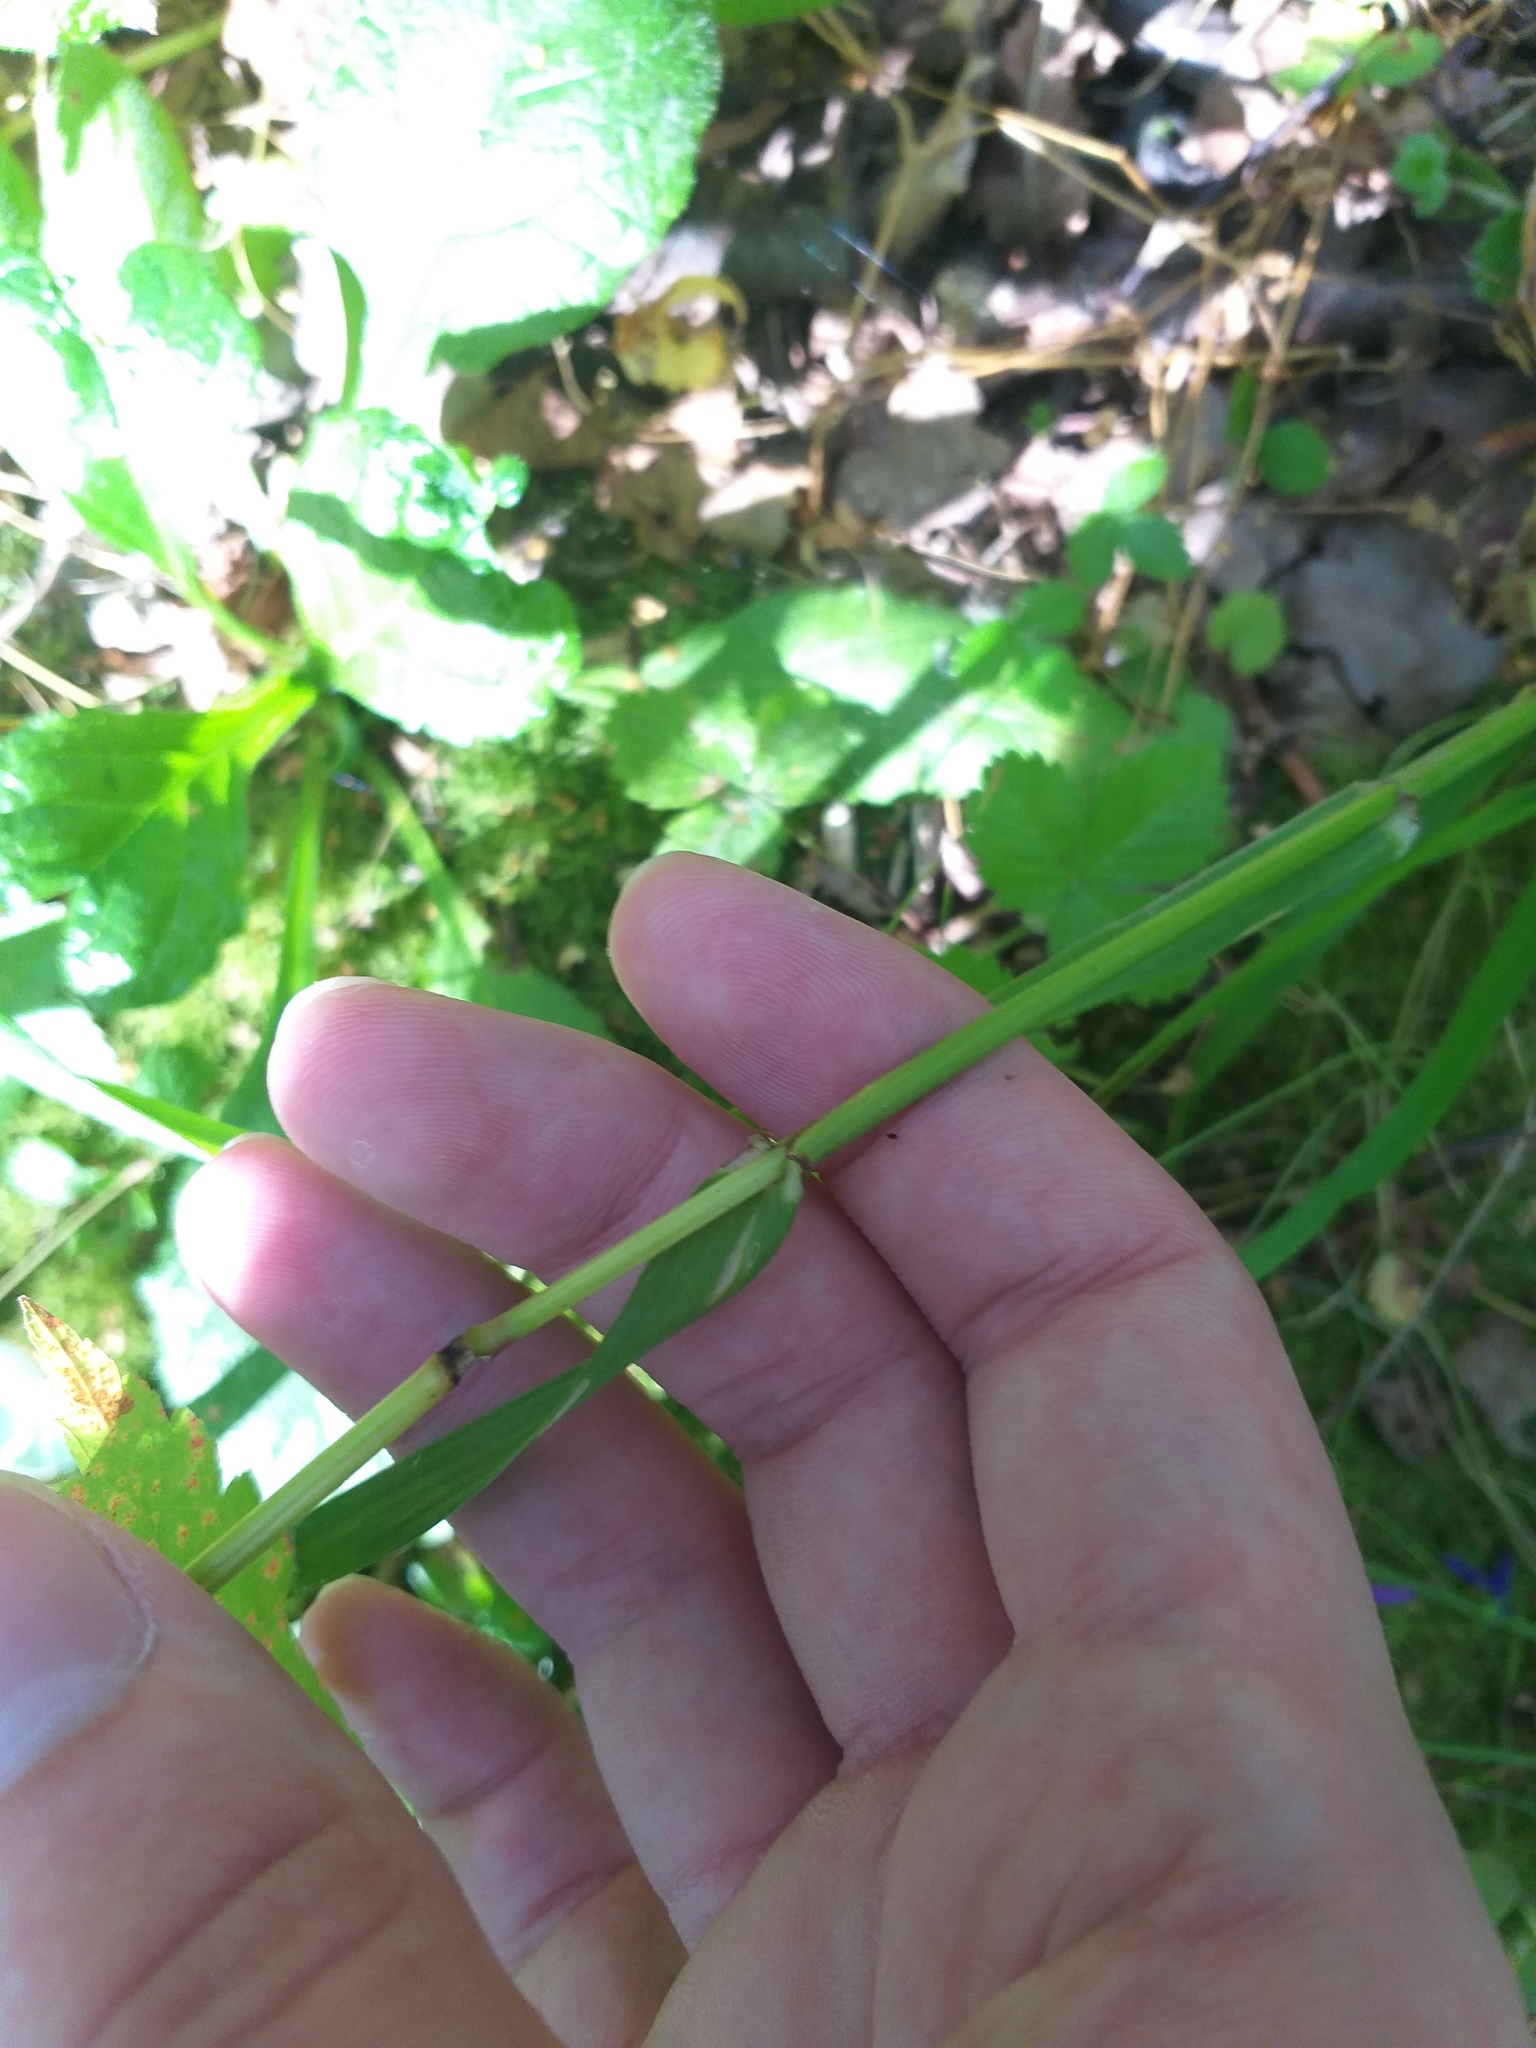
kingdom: Plantae
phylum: Tracheophyta
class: Liliopsida
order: Poales
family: Poaceae
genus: Lolium
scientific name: Lolium giganteum
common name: Giant fescue
